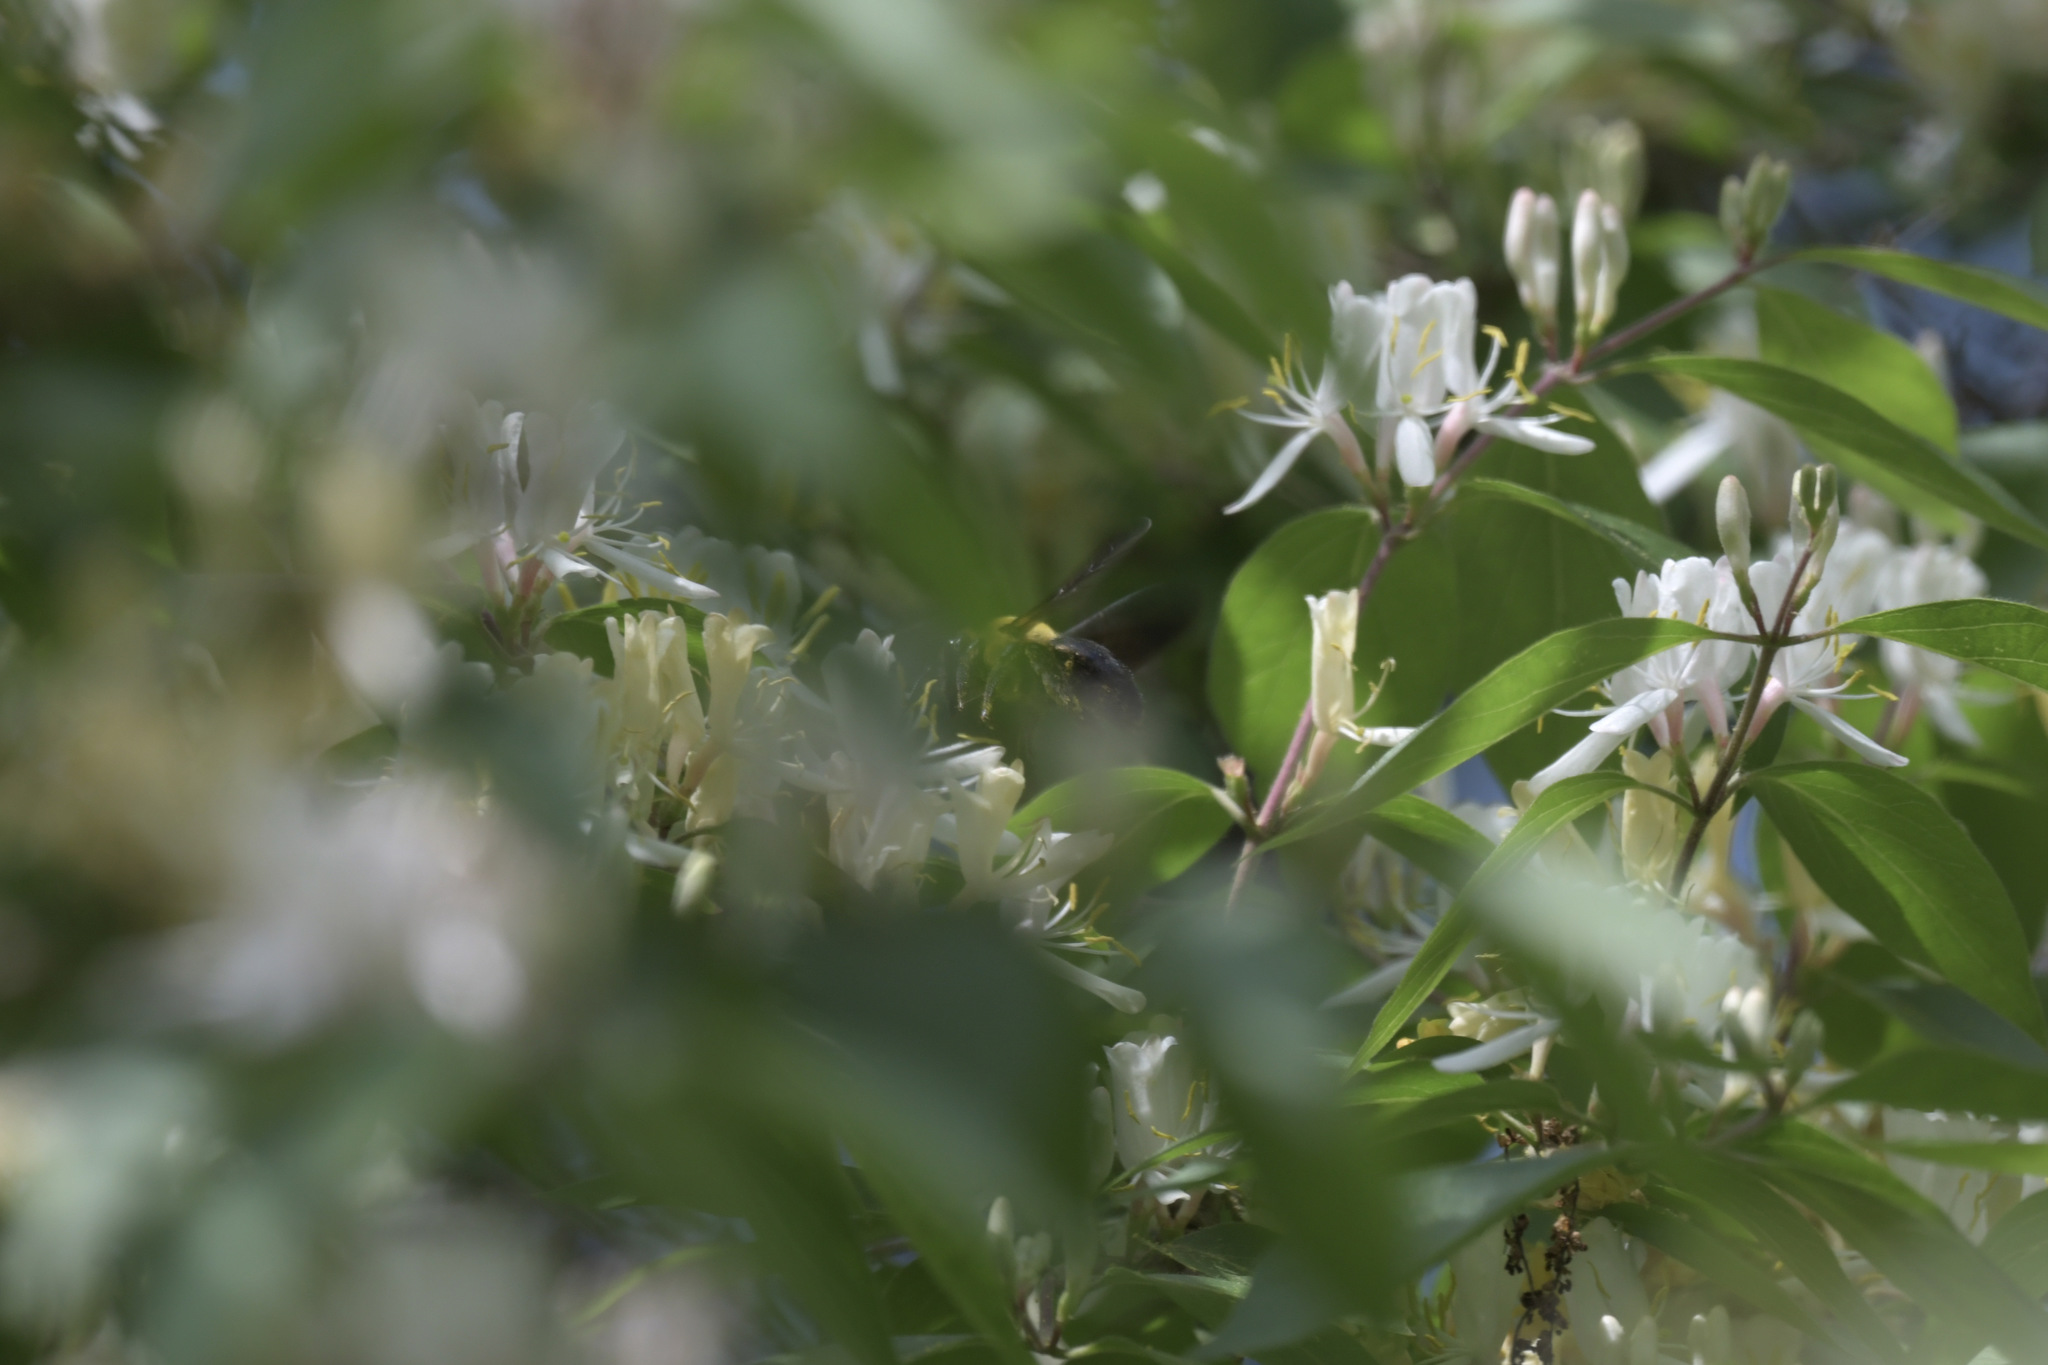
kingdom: Animalia
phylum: Arthropoda
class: Insecta
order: Hymenoptera
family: Apidae
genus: Xylocopa
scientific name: Xylocopa appendiculata
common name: Japanese carpenter bee
